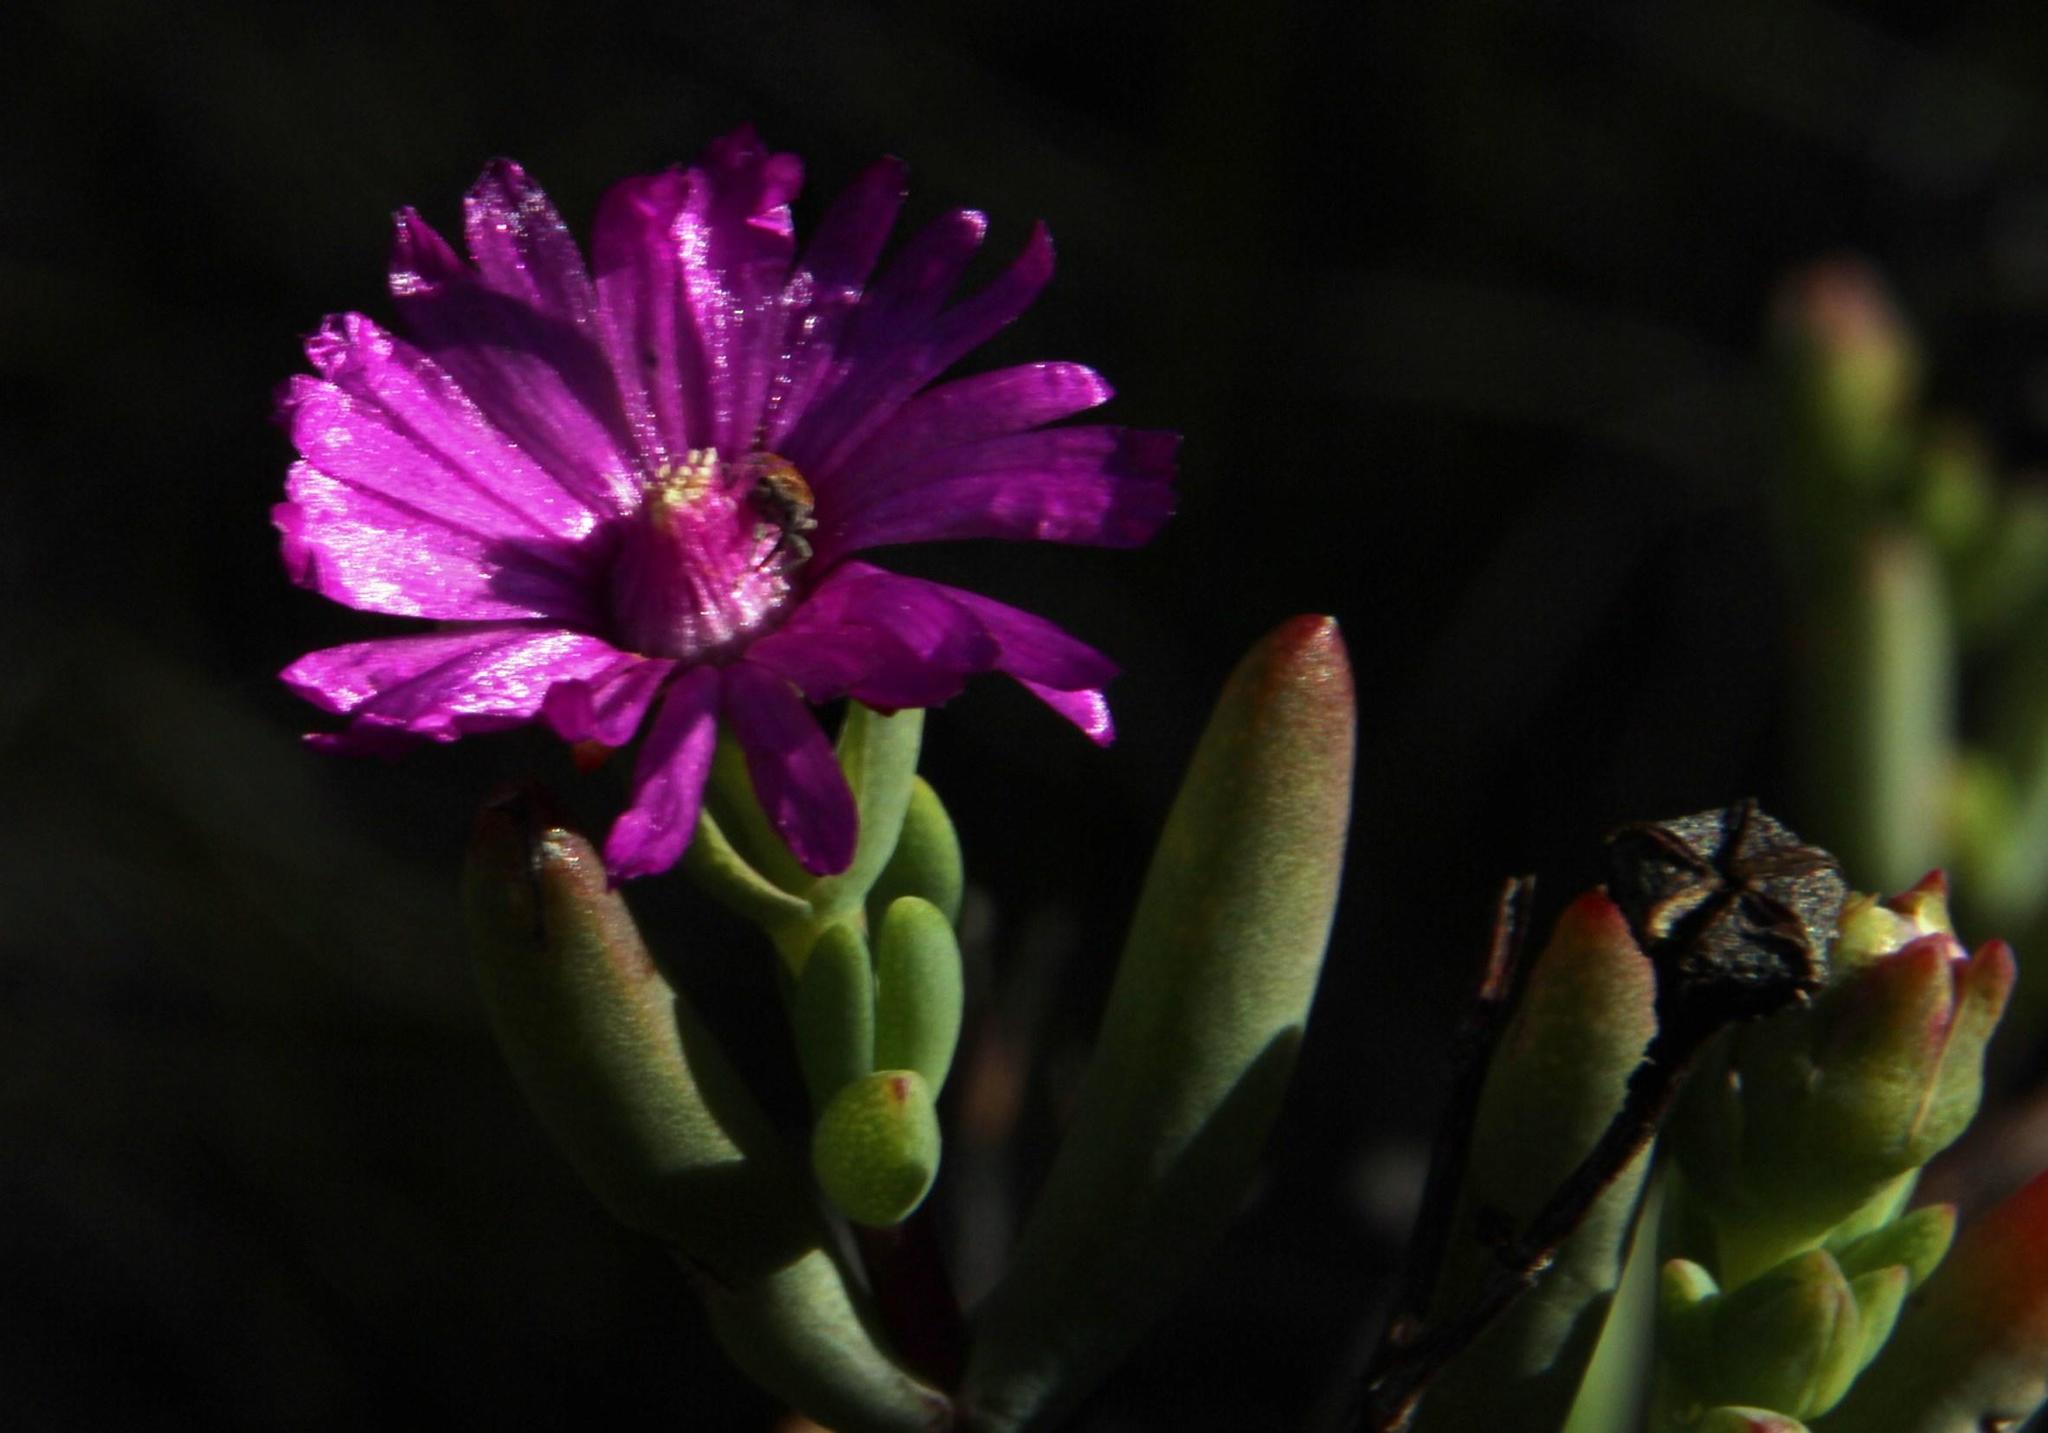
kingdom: Plantae
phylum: Tracheophyta
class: Magnoliopsida
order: Caryophyllales
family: Aizoaceae
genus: Ruschia
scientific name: Ruschia montaguensis
